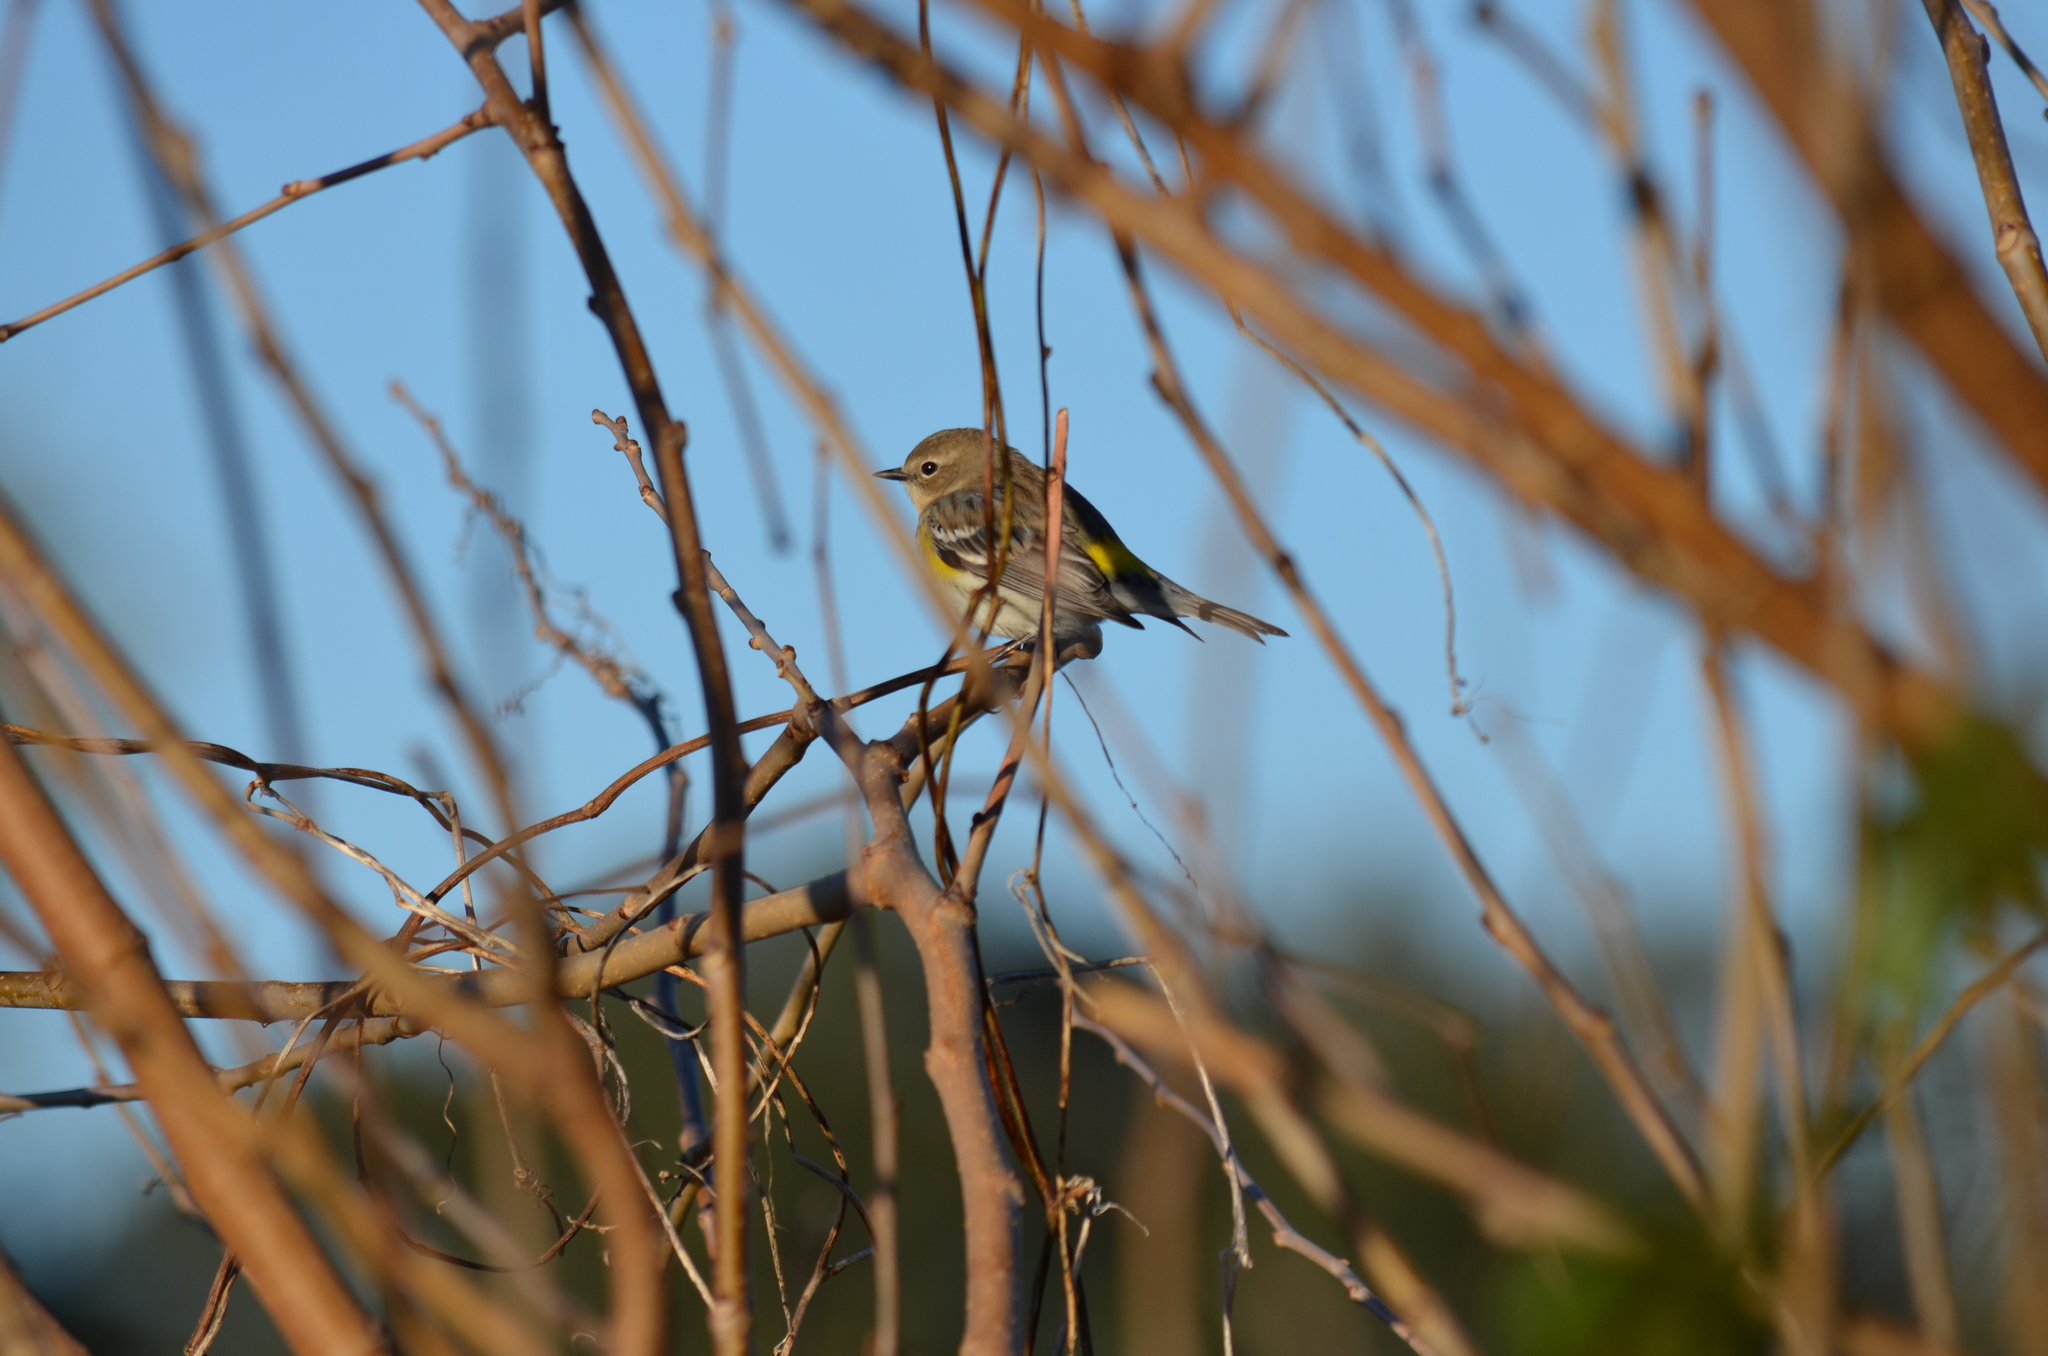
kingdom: Animalia
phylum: Chordata
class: Aves
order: Passeriformes
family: Parulidae
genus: Setophaga
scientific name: Setophaga coronata
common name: Myrtle warbler
